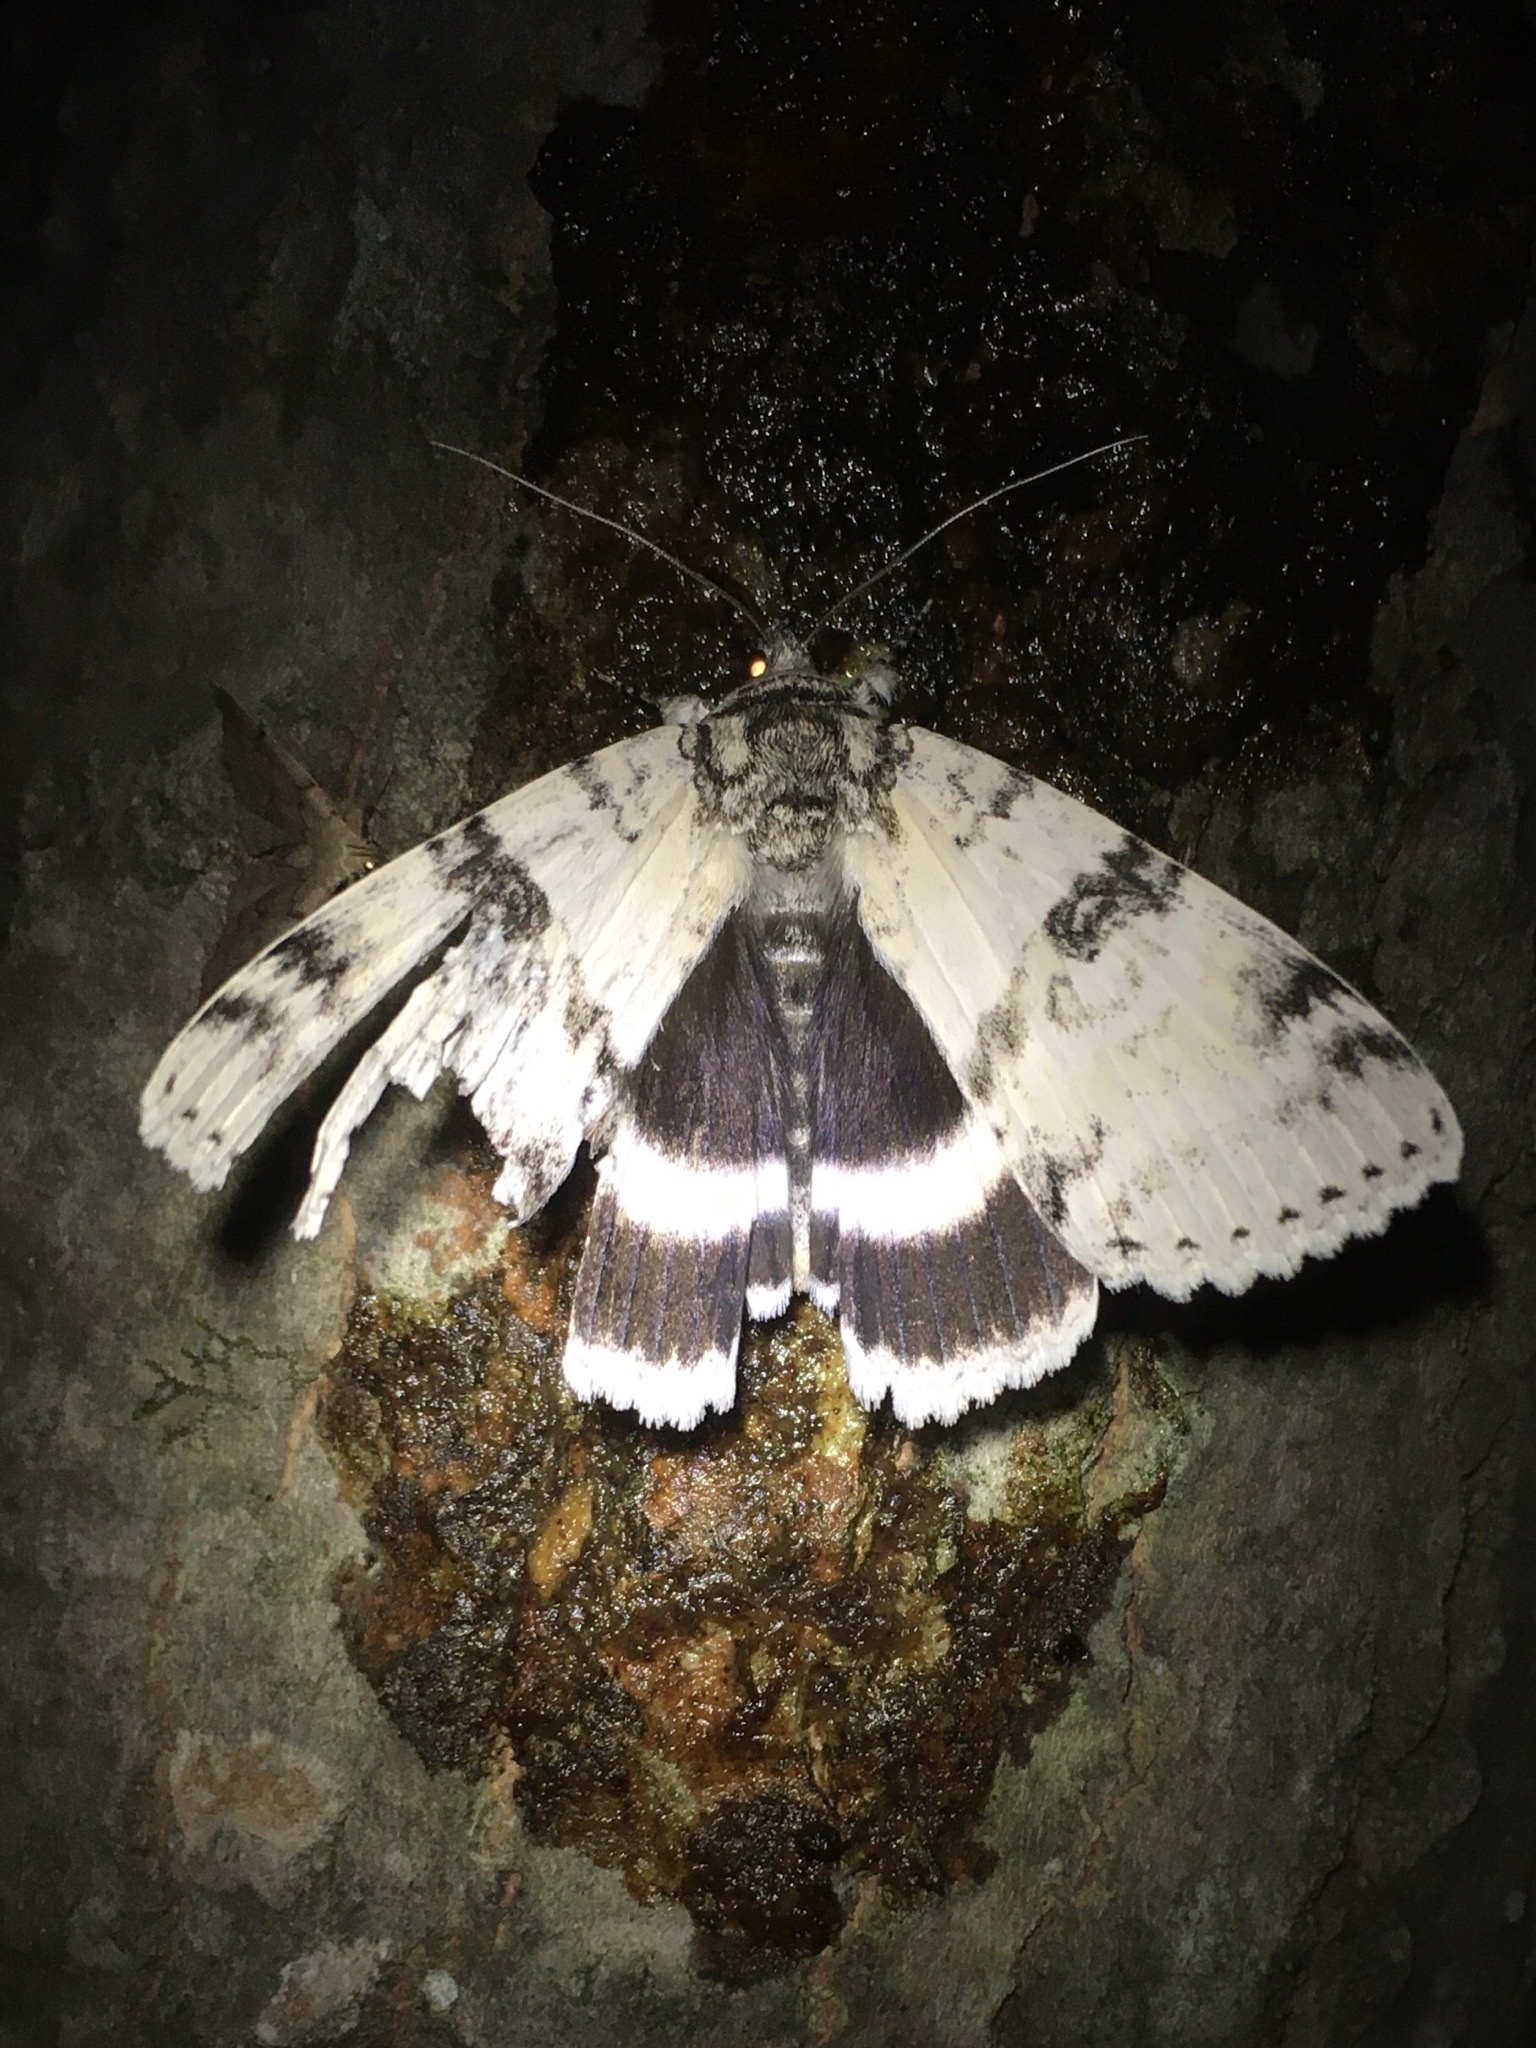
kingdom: Animalia
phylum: Arthropoda
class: Insecta
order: Lepidoptera
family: Erebidae
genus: Catocala
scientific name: Catocala relicta
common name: White underwing
